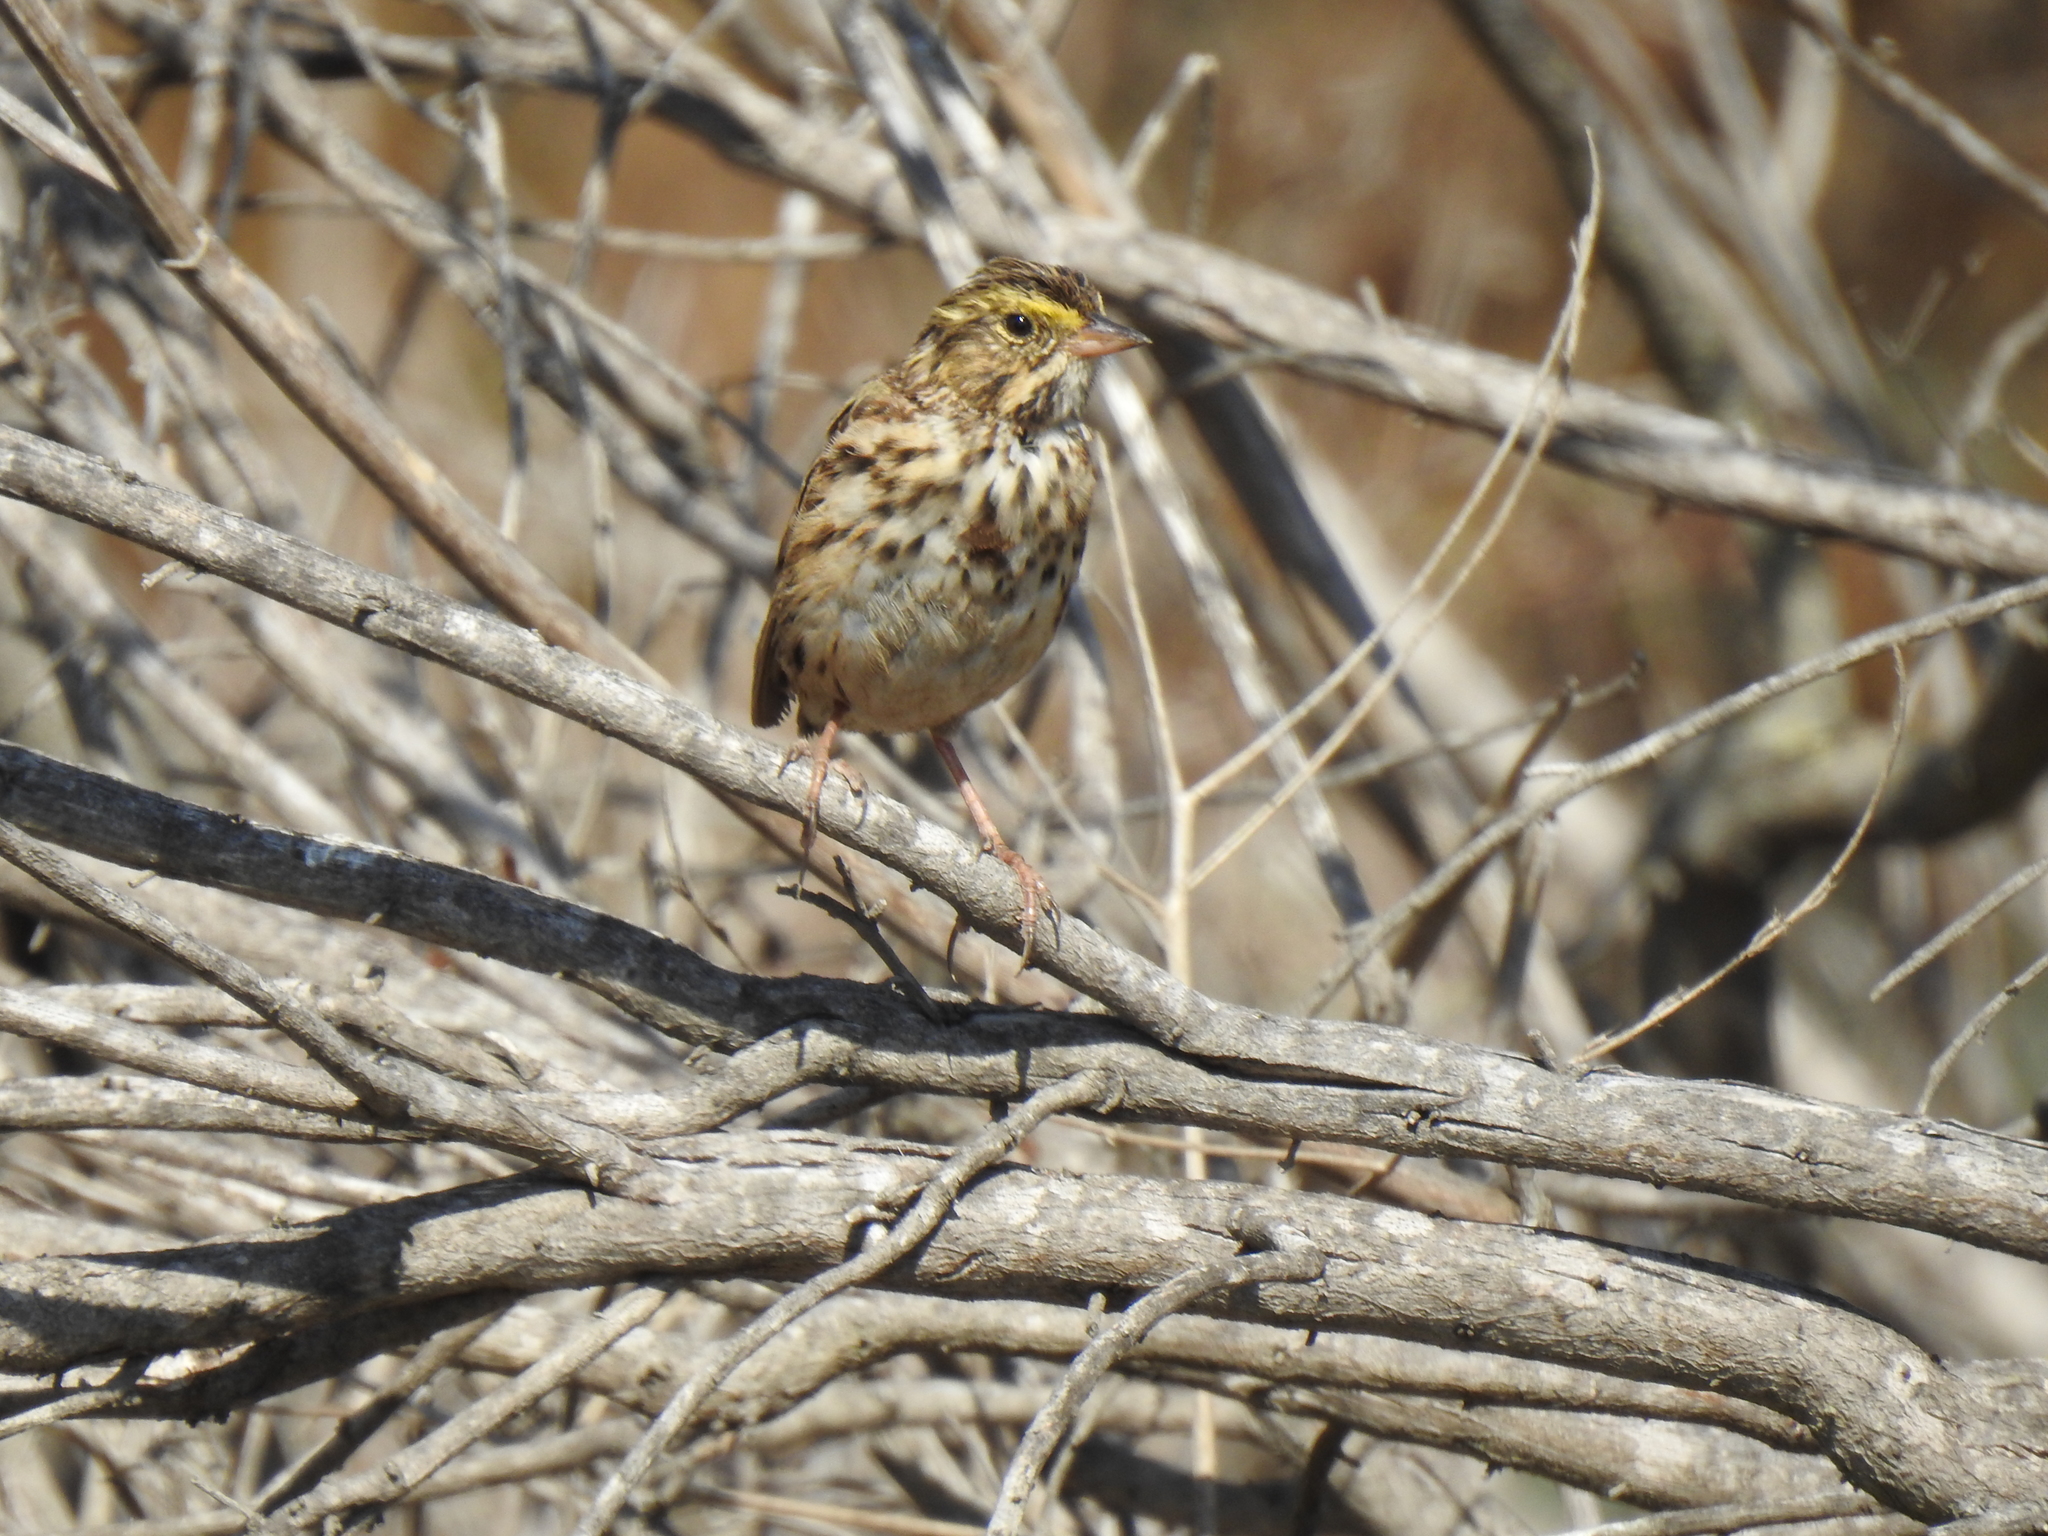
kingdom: Animalia
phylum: Chordata
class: Aves
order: Passeriformes
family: Passerellidae
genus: Passerculus
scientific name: Passerculus sandwichensis
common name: Savannah sparrow
